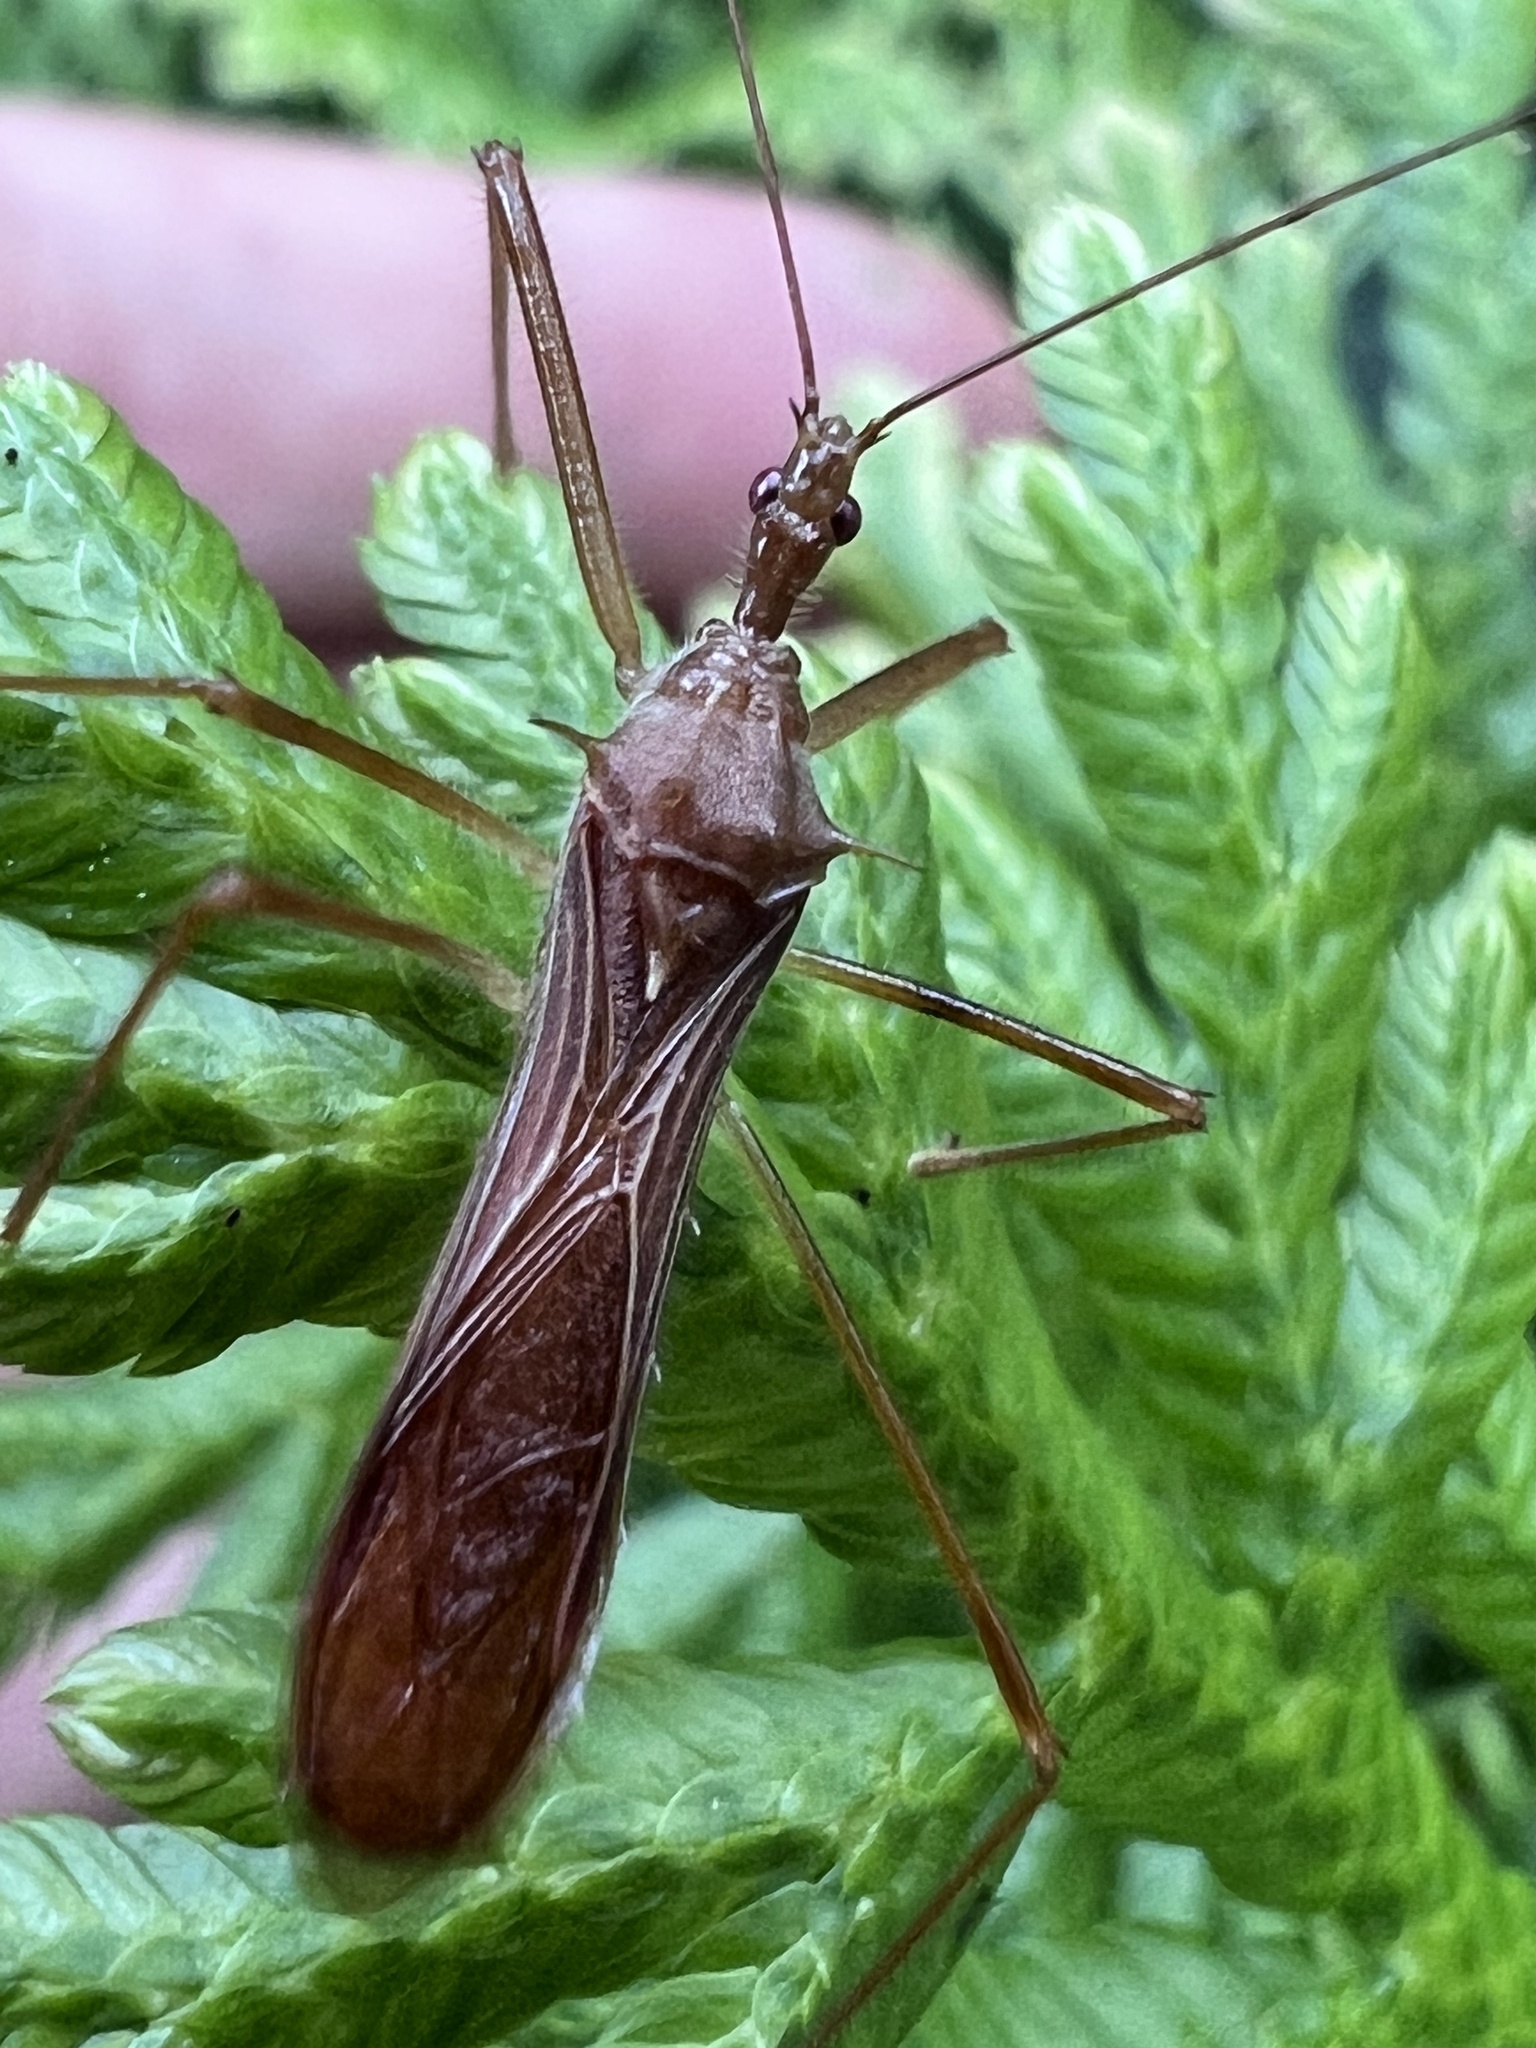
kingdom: Animalia
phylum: Arthropoda
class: Insecta
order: Hemiptera
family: Reduviidae
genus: Ricolla
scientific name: Ricolla simillima
